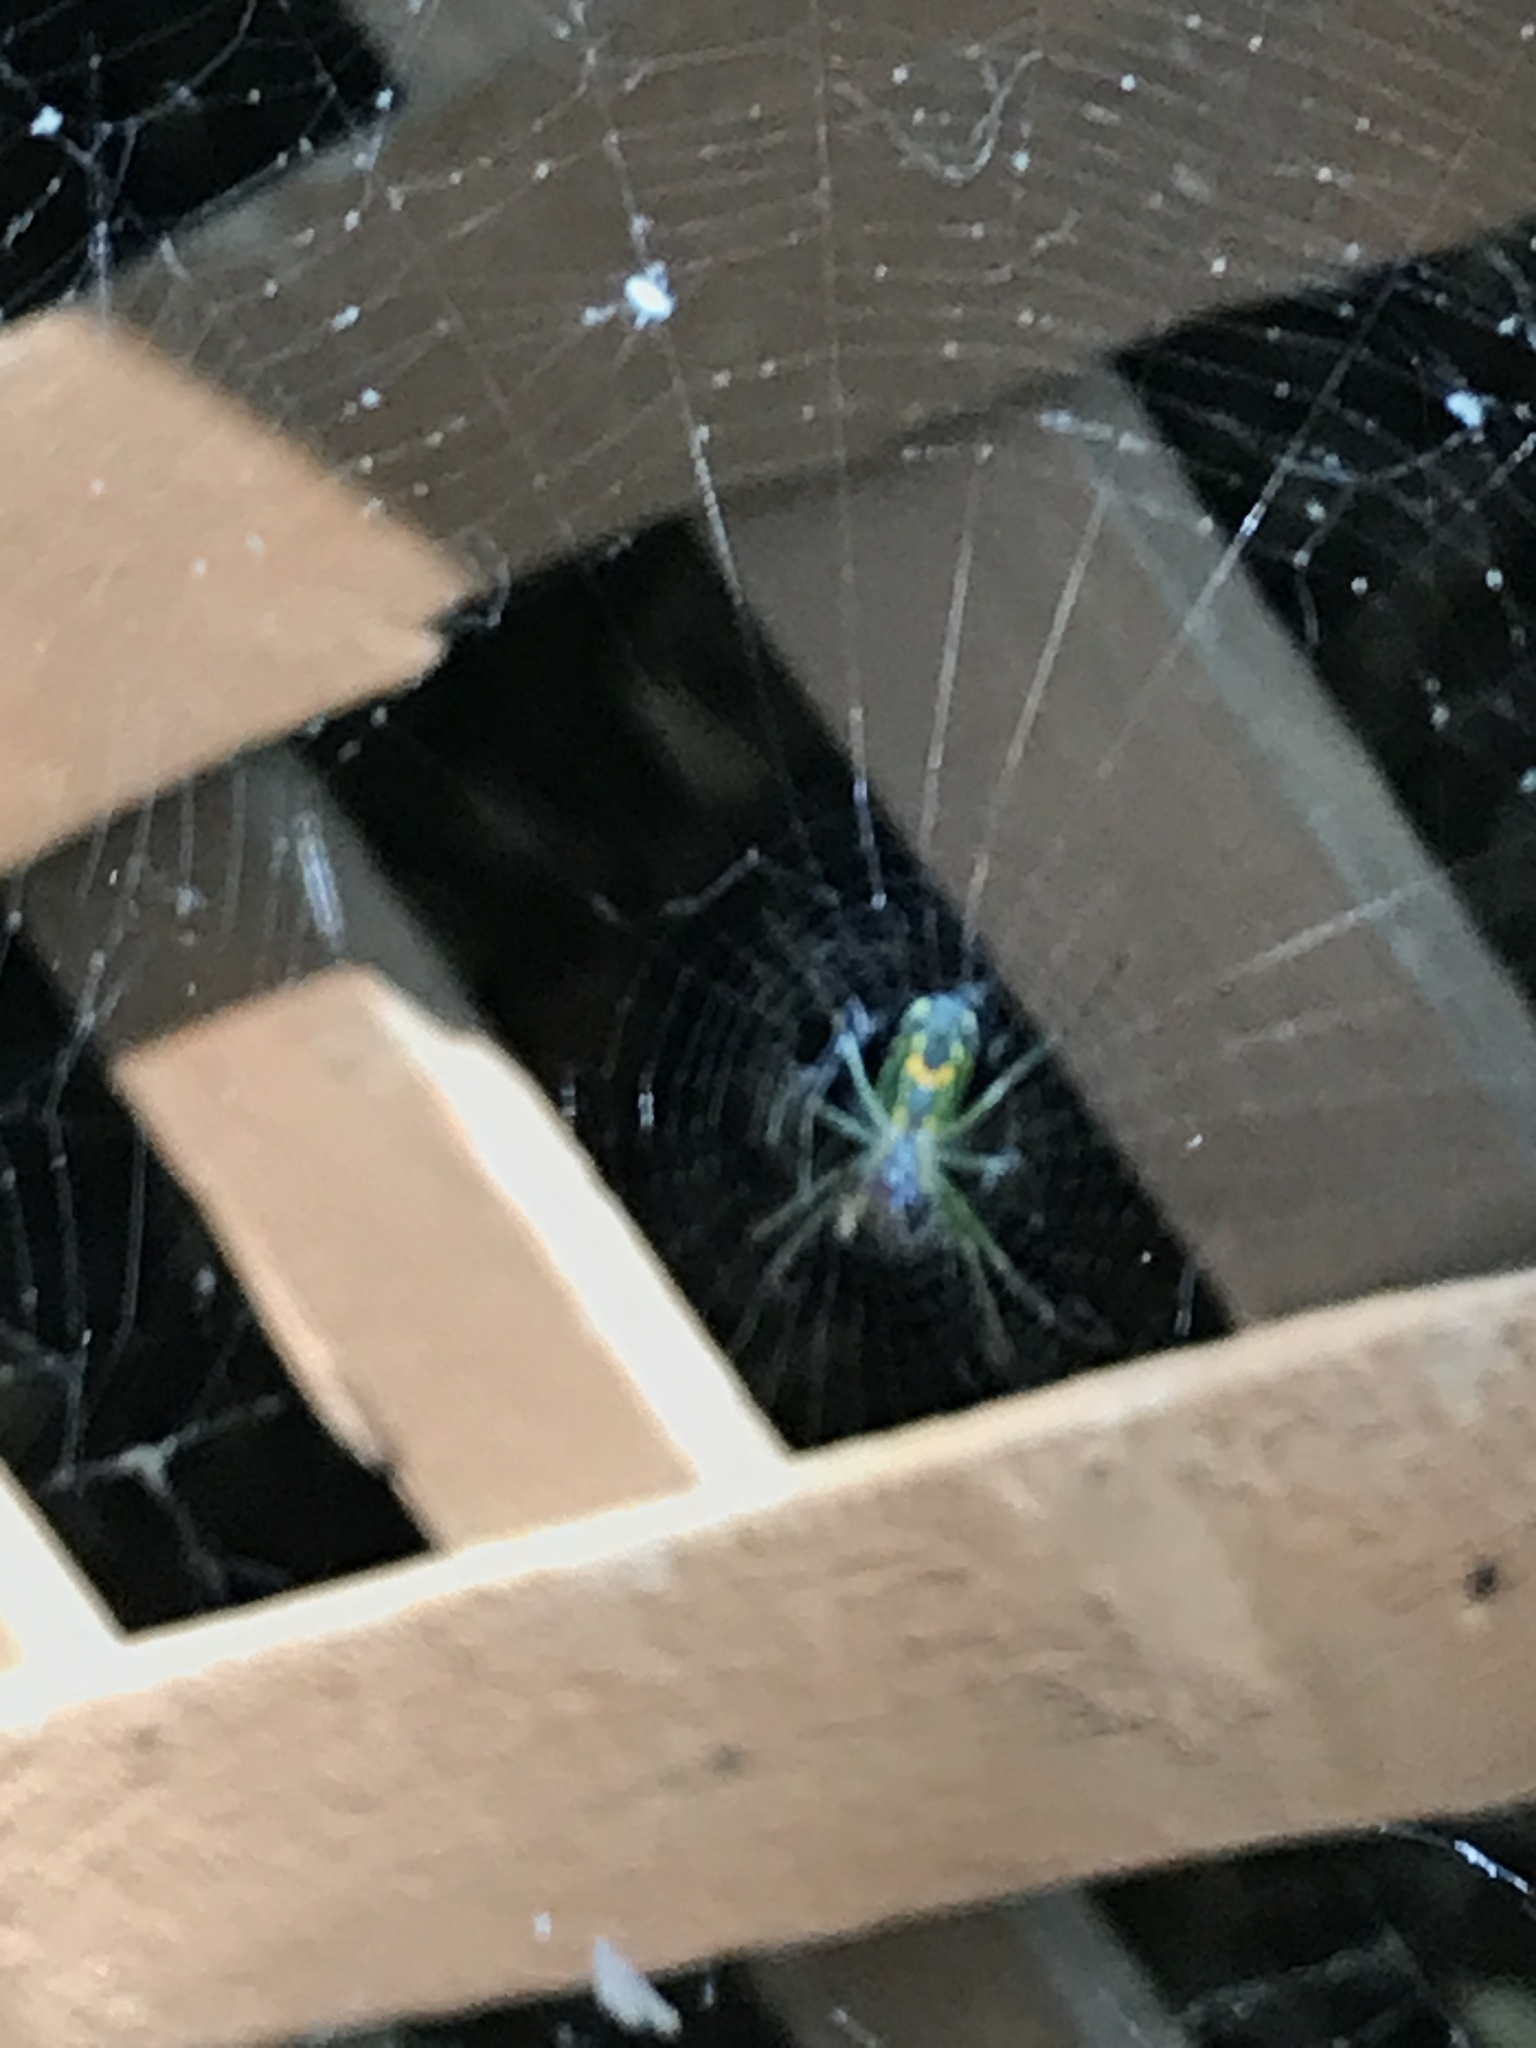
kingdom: Animalia
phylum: Arthropoda
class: Arachnida
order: Araneae
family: Tetragnathidae
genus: Leucauge
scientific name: Leucauge venusta
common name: Longjawed orb weavers
